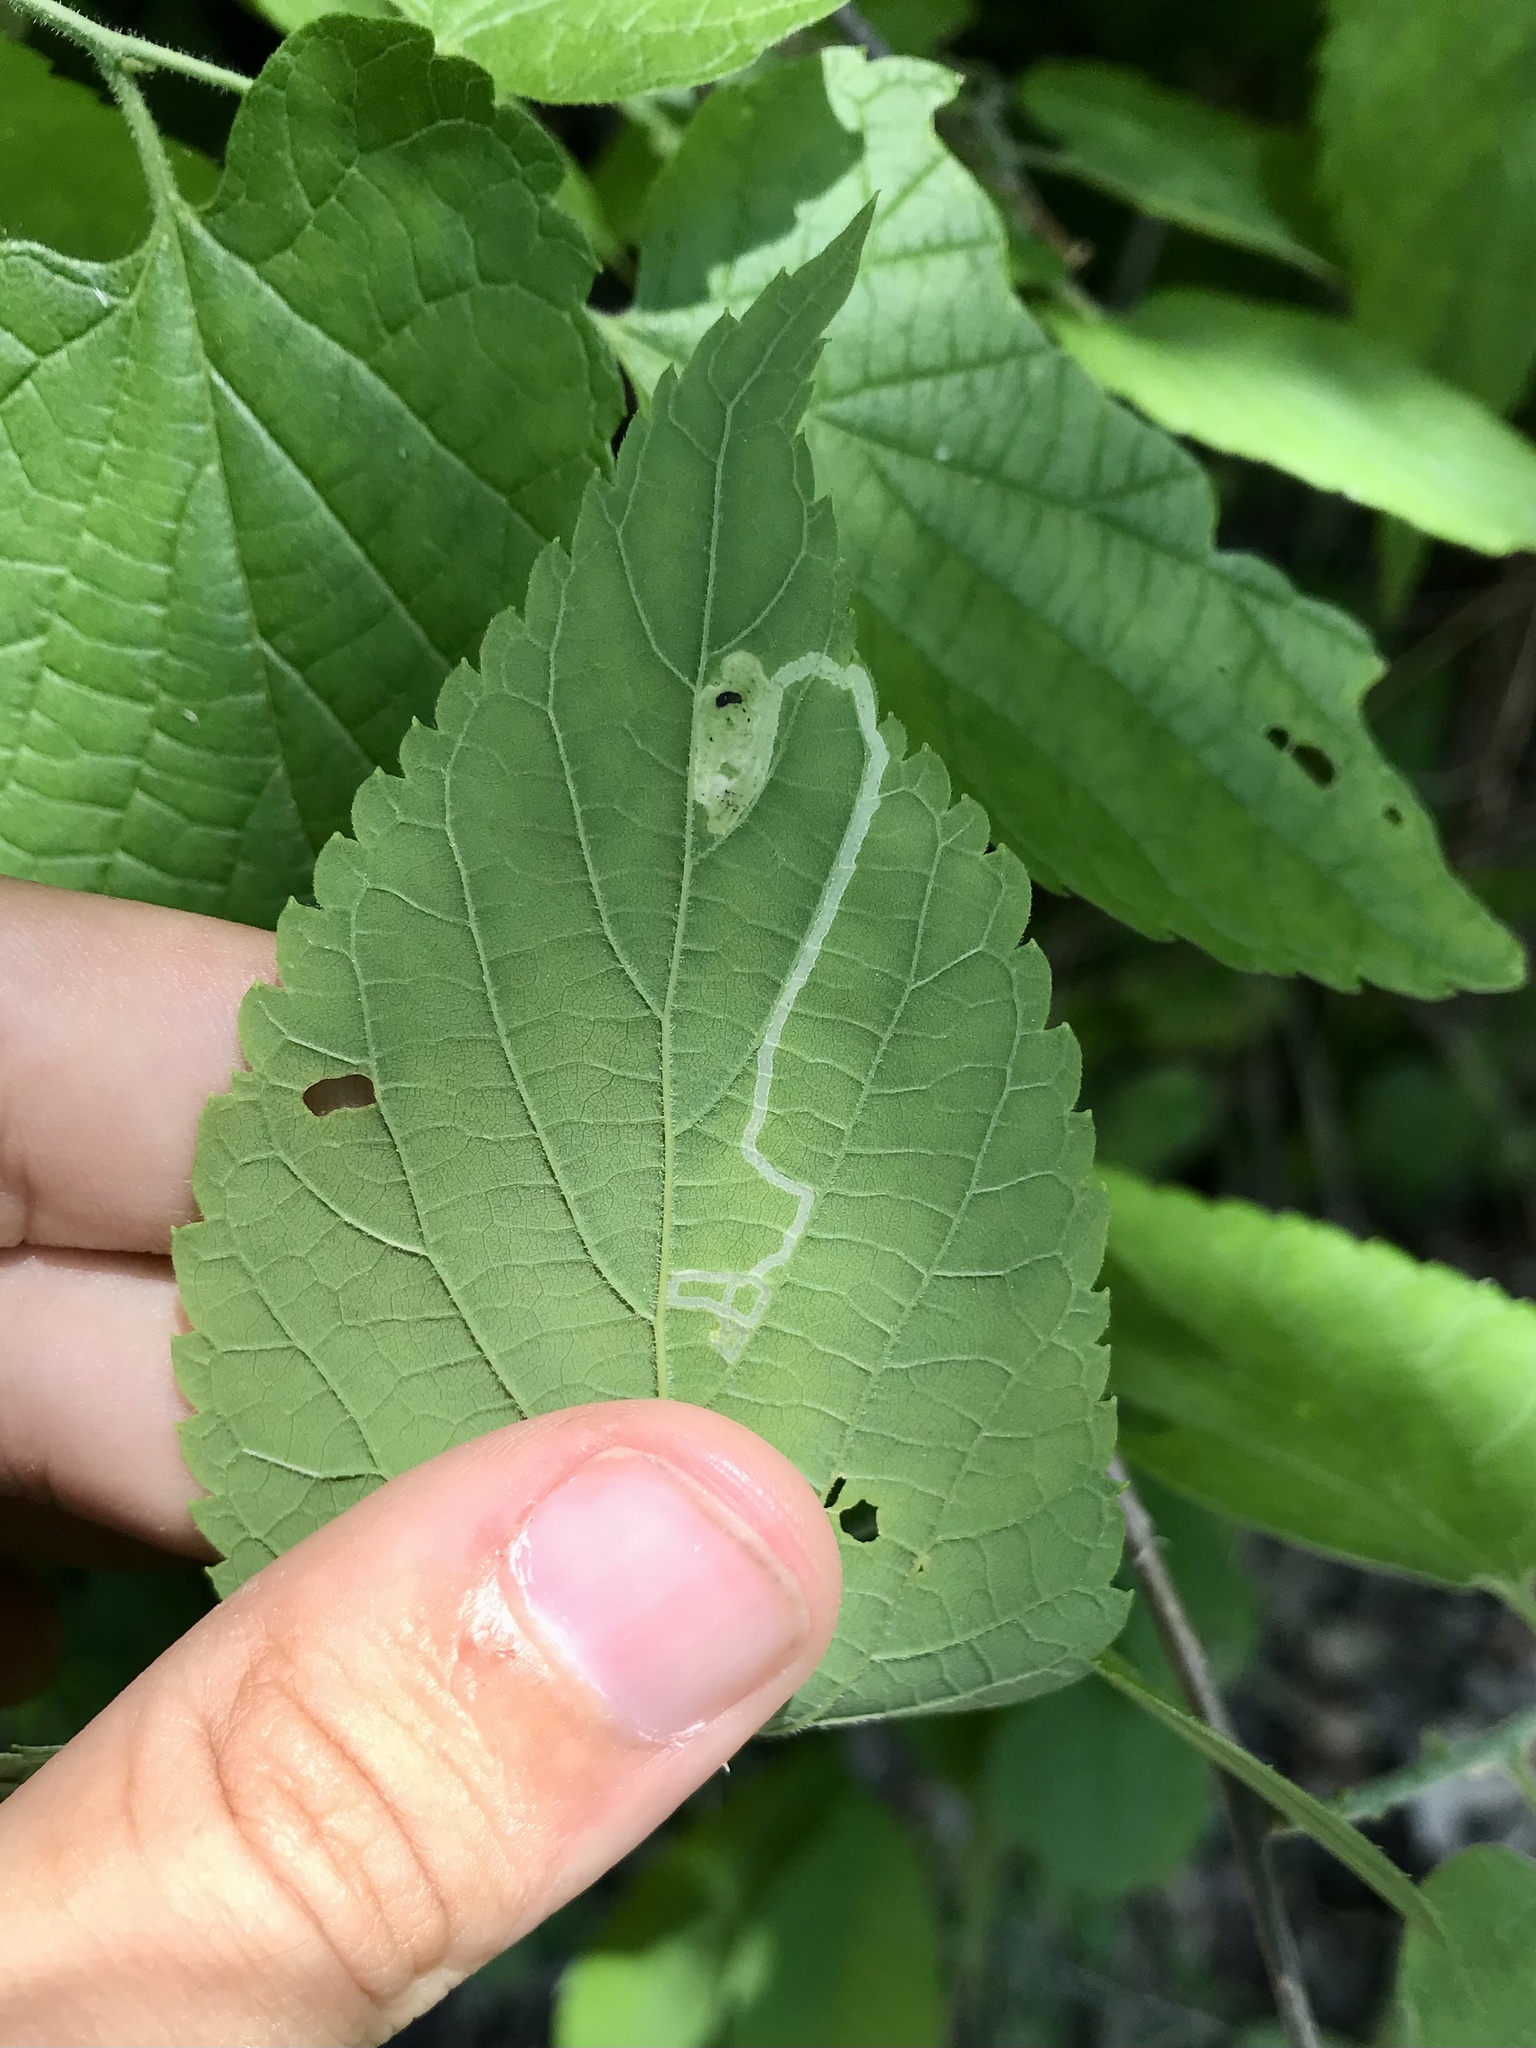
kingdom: Animalia
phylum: Arthropoda
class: Insecta
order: Diptera
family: Agromyzidae
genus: Agromyza
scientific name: Agromyza aristata
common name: Elm agromyzid leafminer
